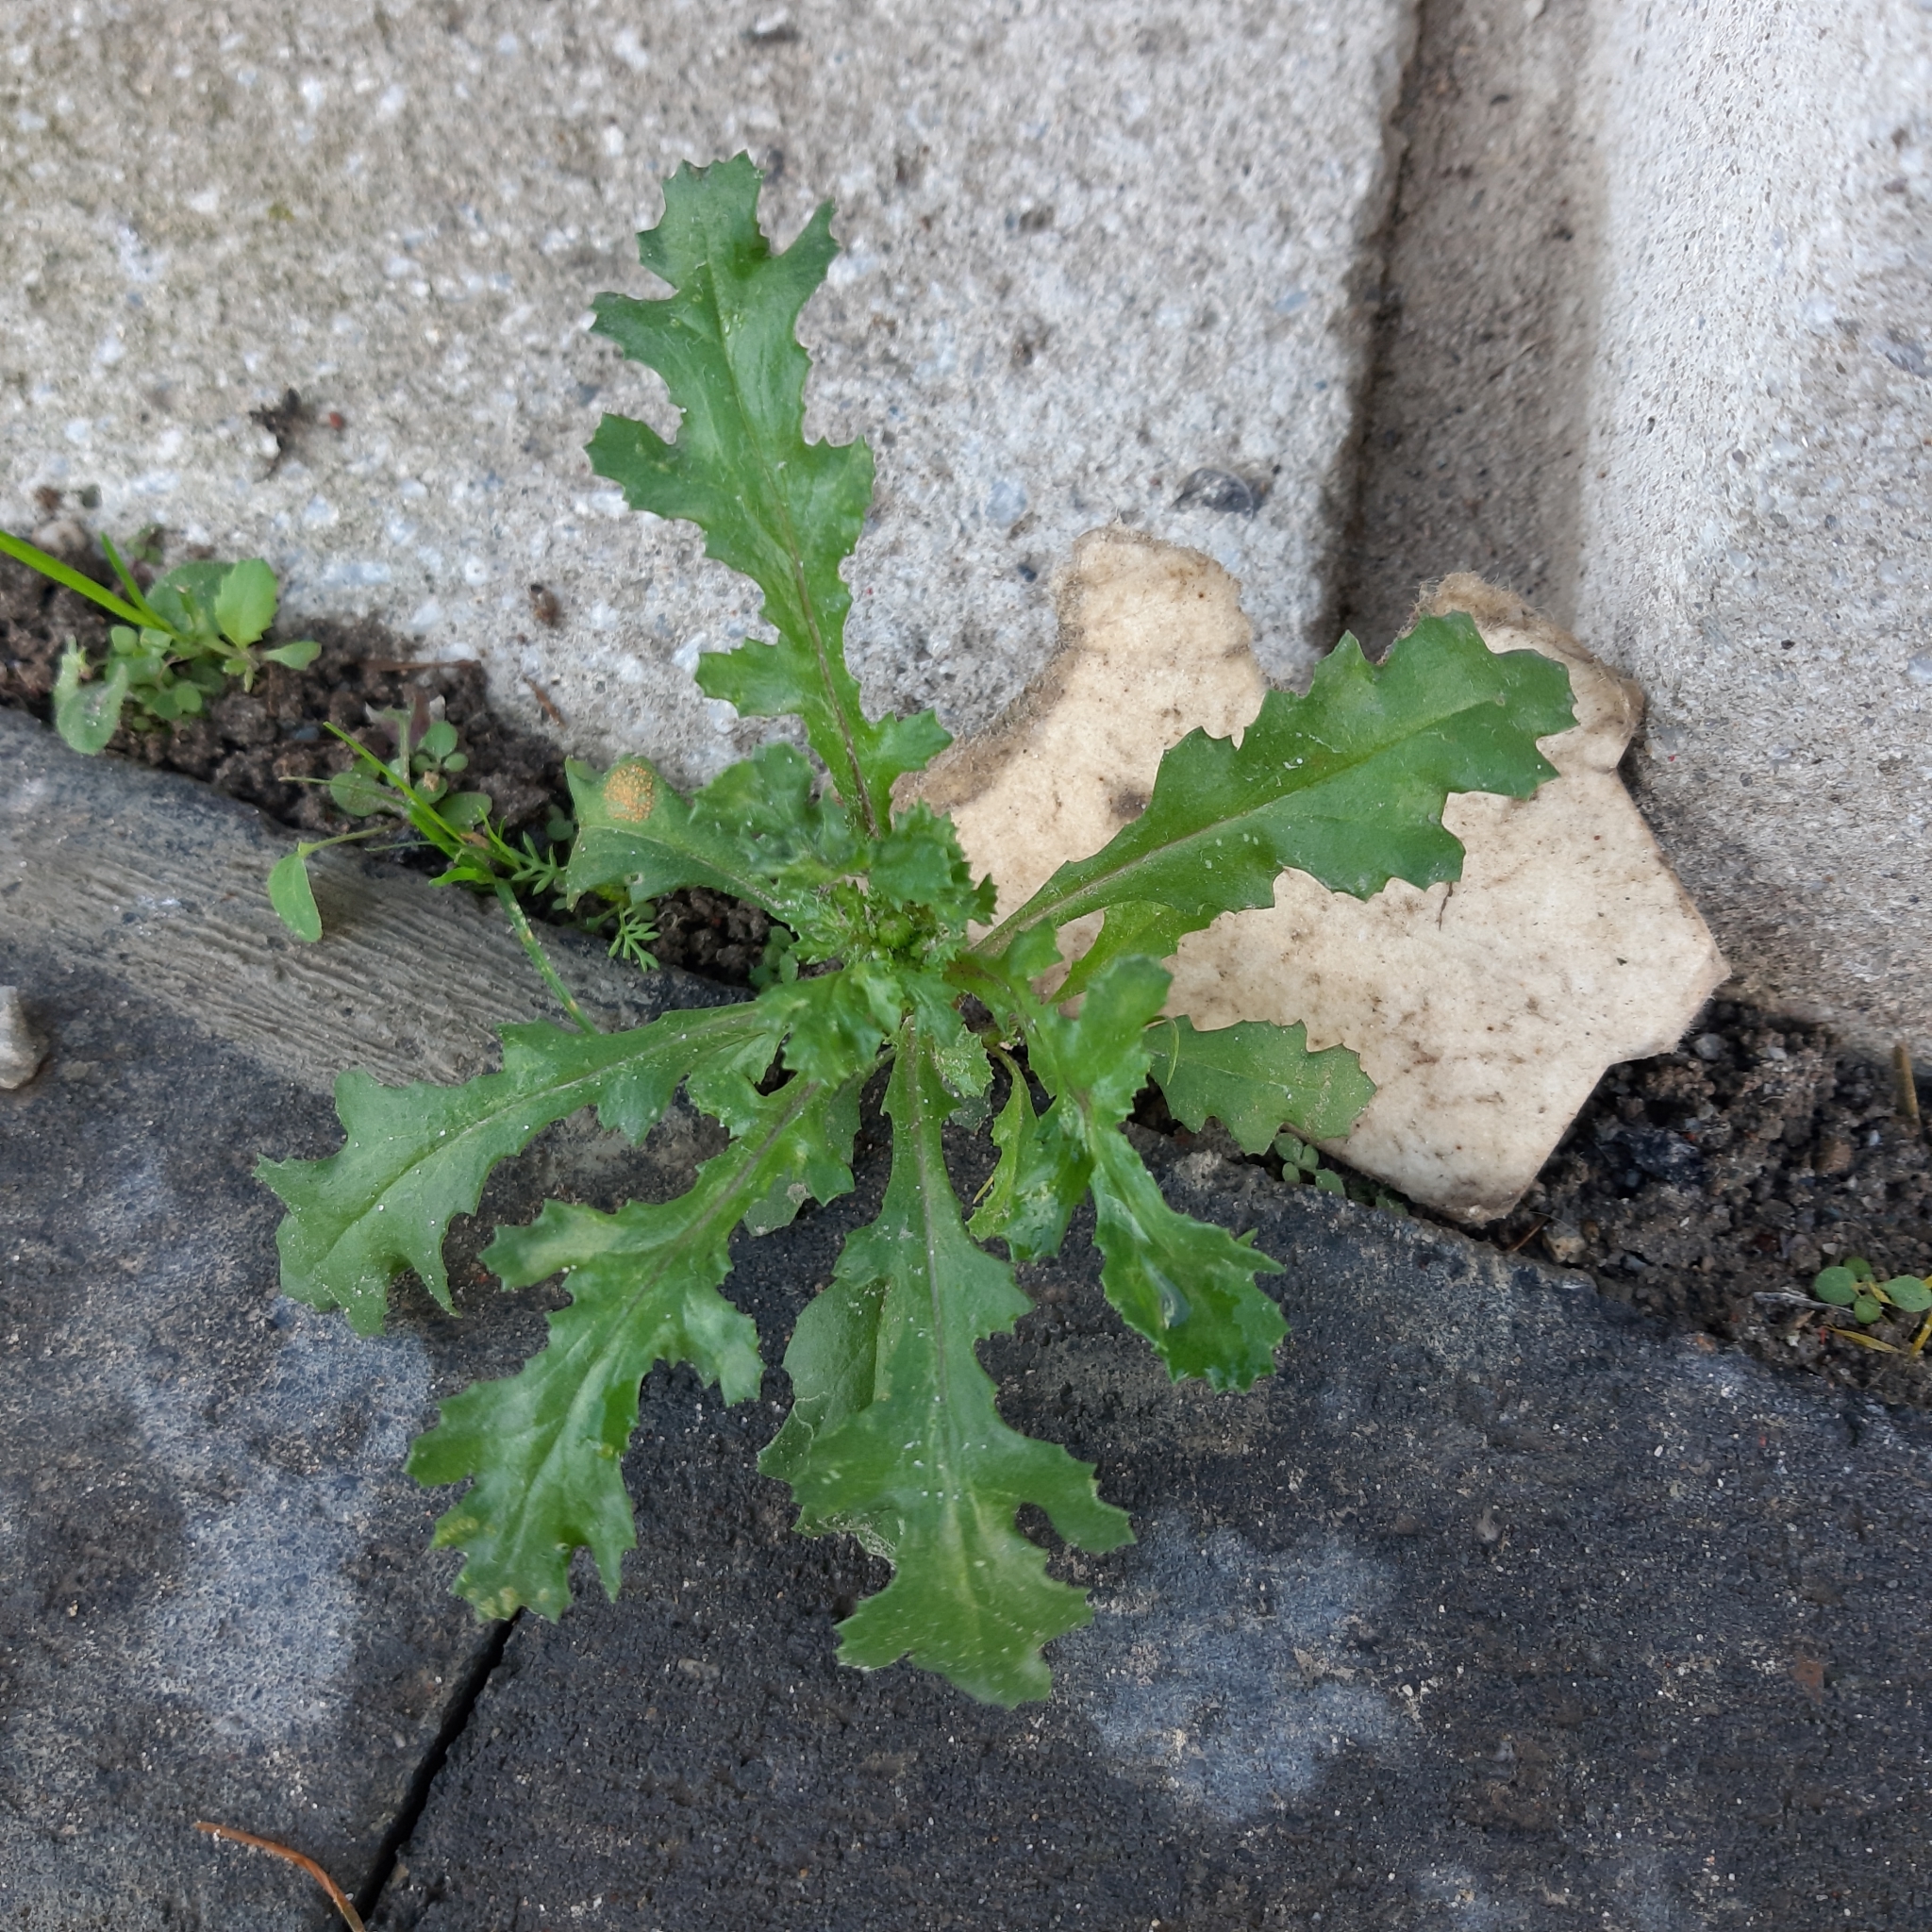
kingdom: Plantae
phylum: Tracheophyta
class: Magnoliopsida
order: Asterales
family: Asteraceae
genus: Senecio
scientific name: Senecio vulgaris
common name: Old-man-in-the-spring
